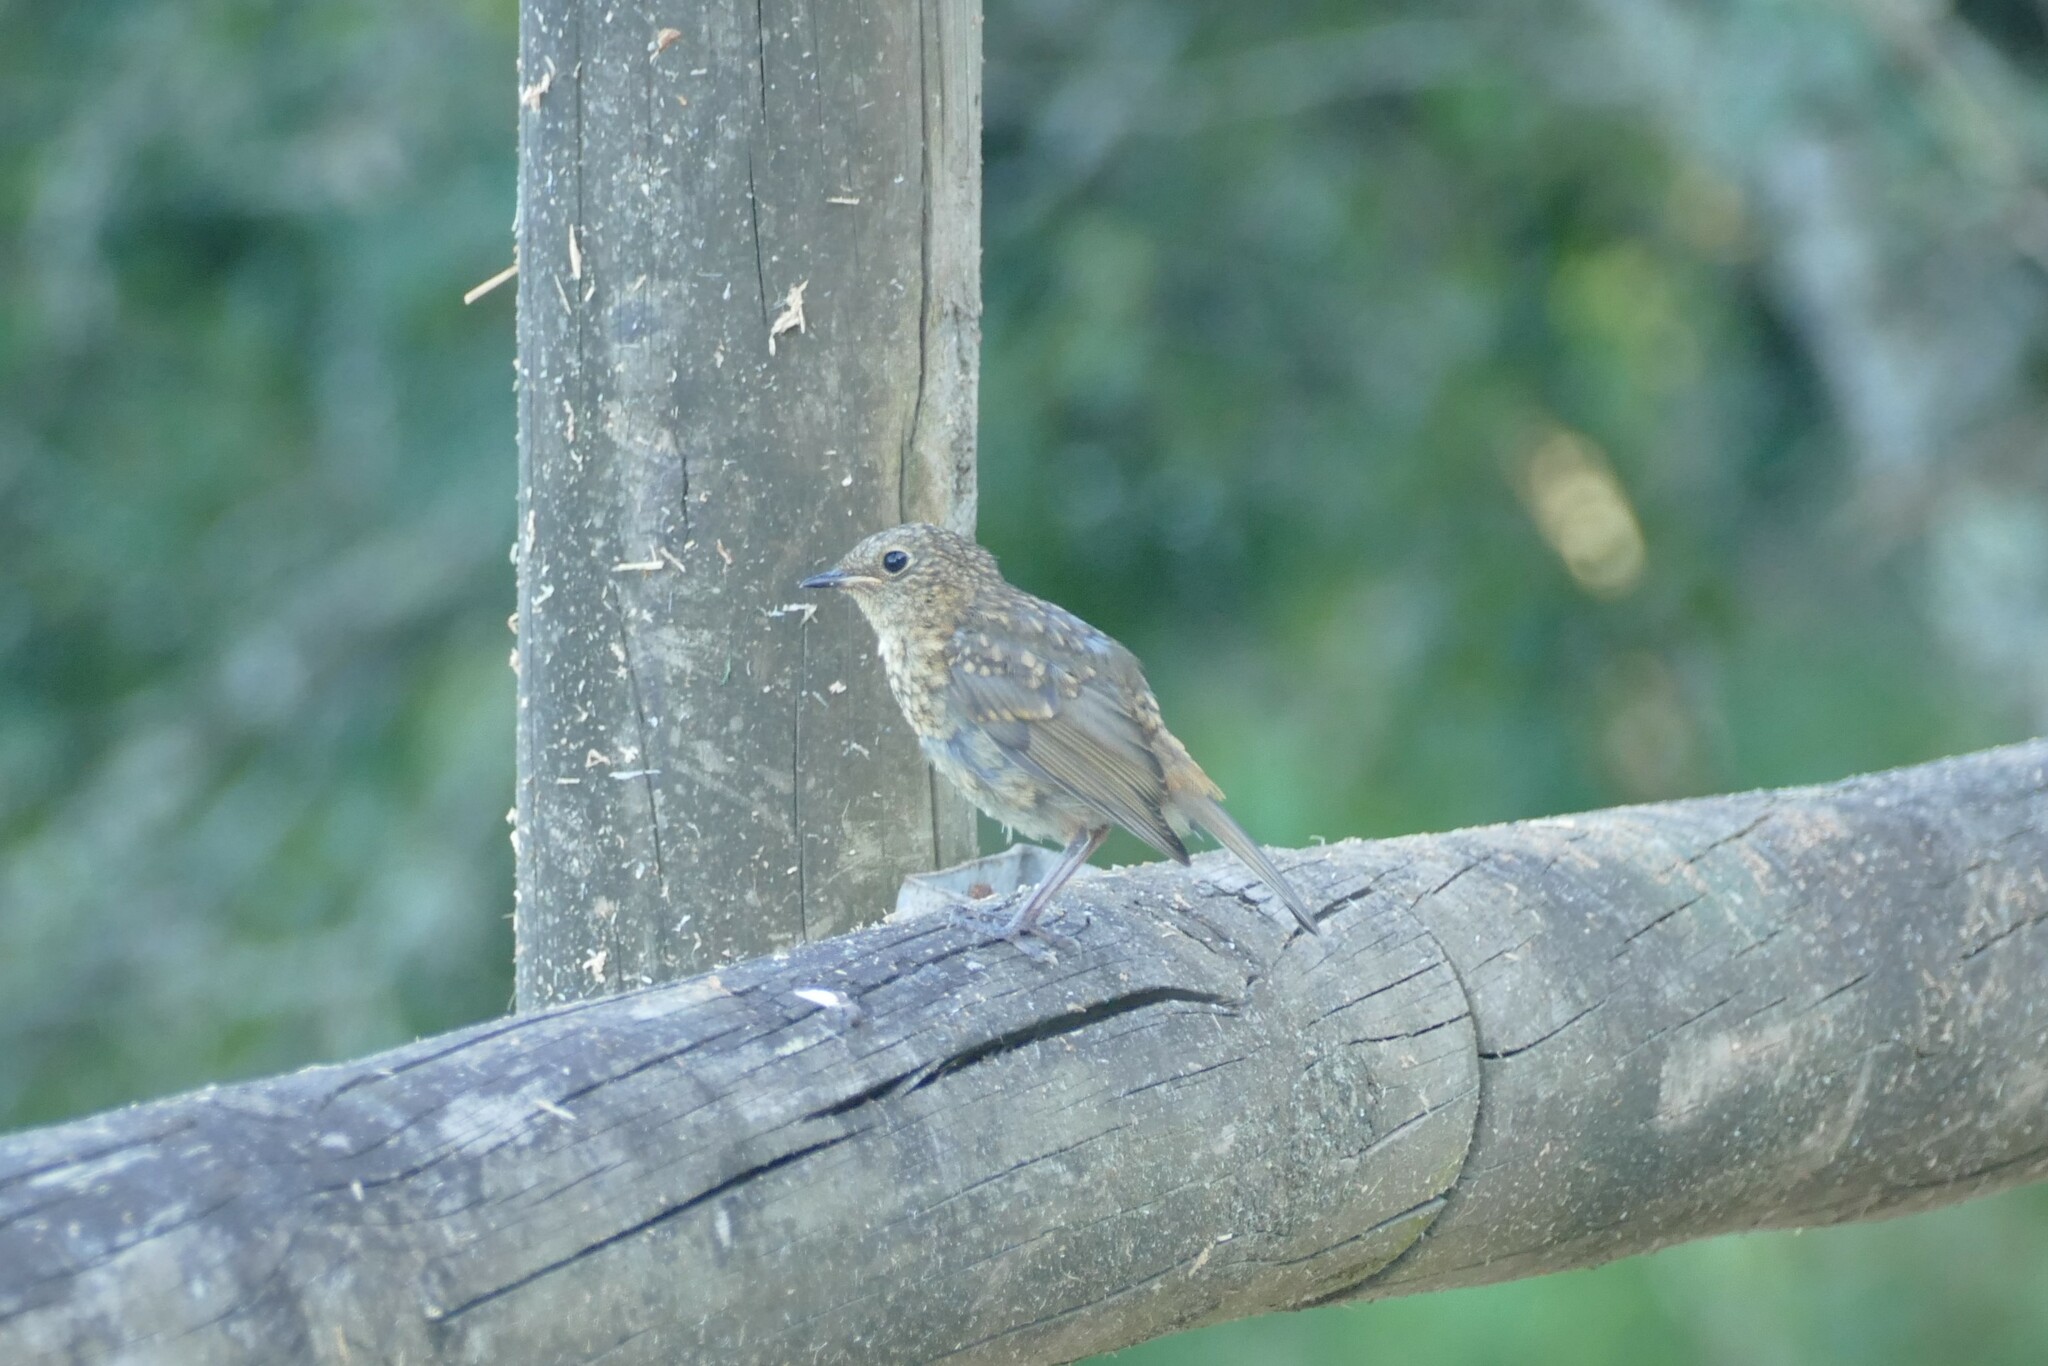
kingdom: Animalia
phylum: Chordata
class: Aves
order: Passeriformes
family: Muscicapidae
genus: Erithacus
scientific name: Erithacus rubecula
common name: European robin
